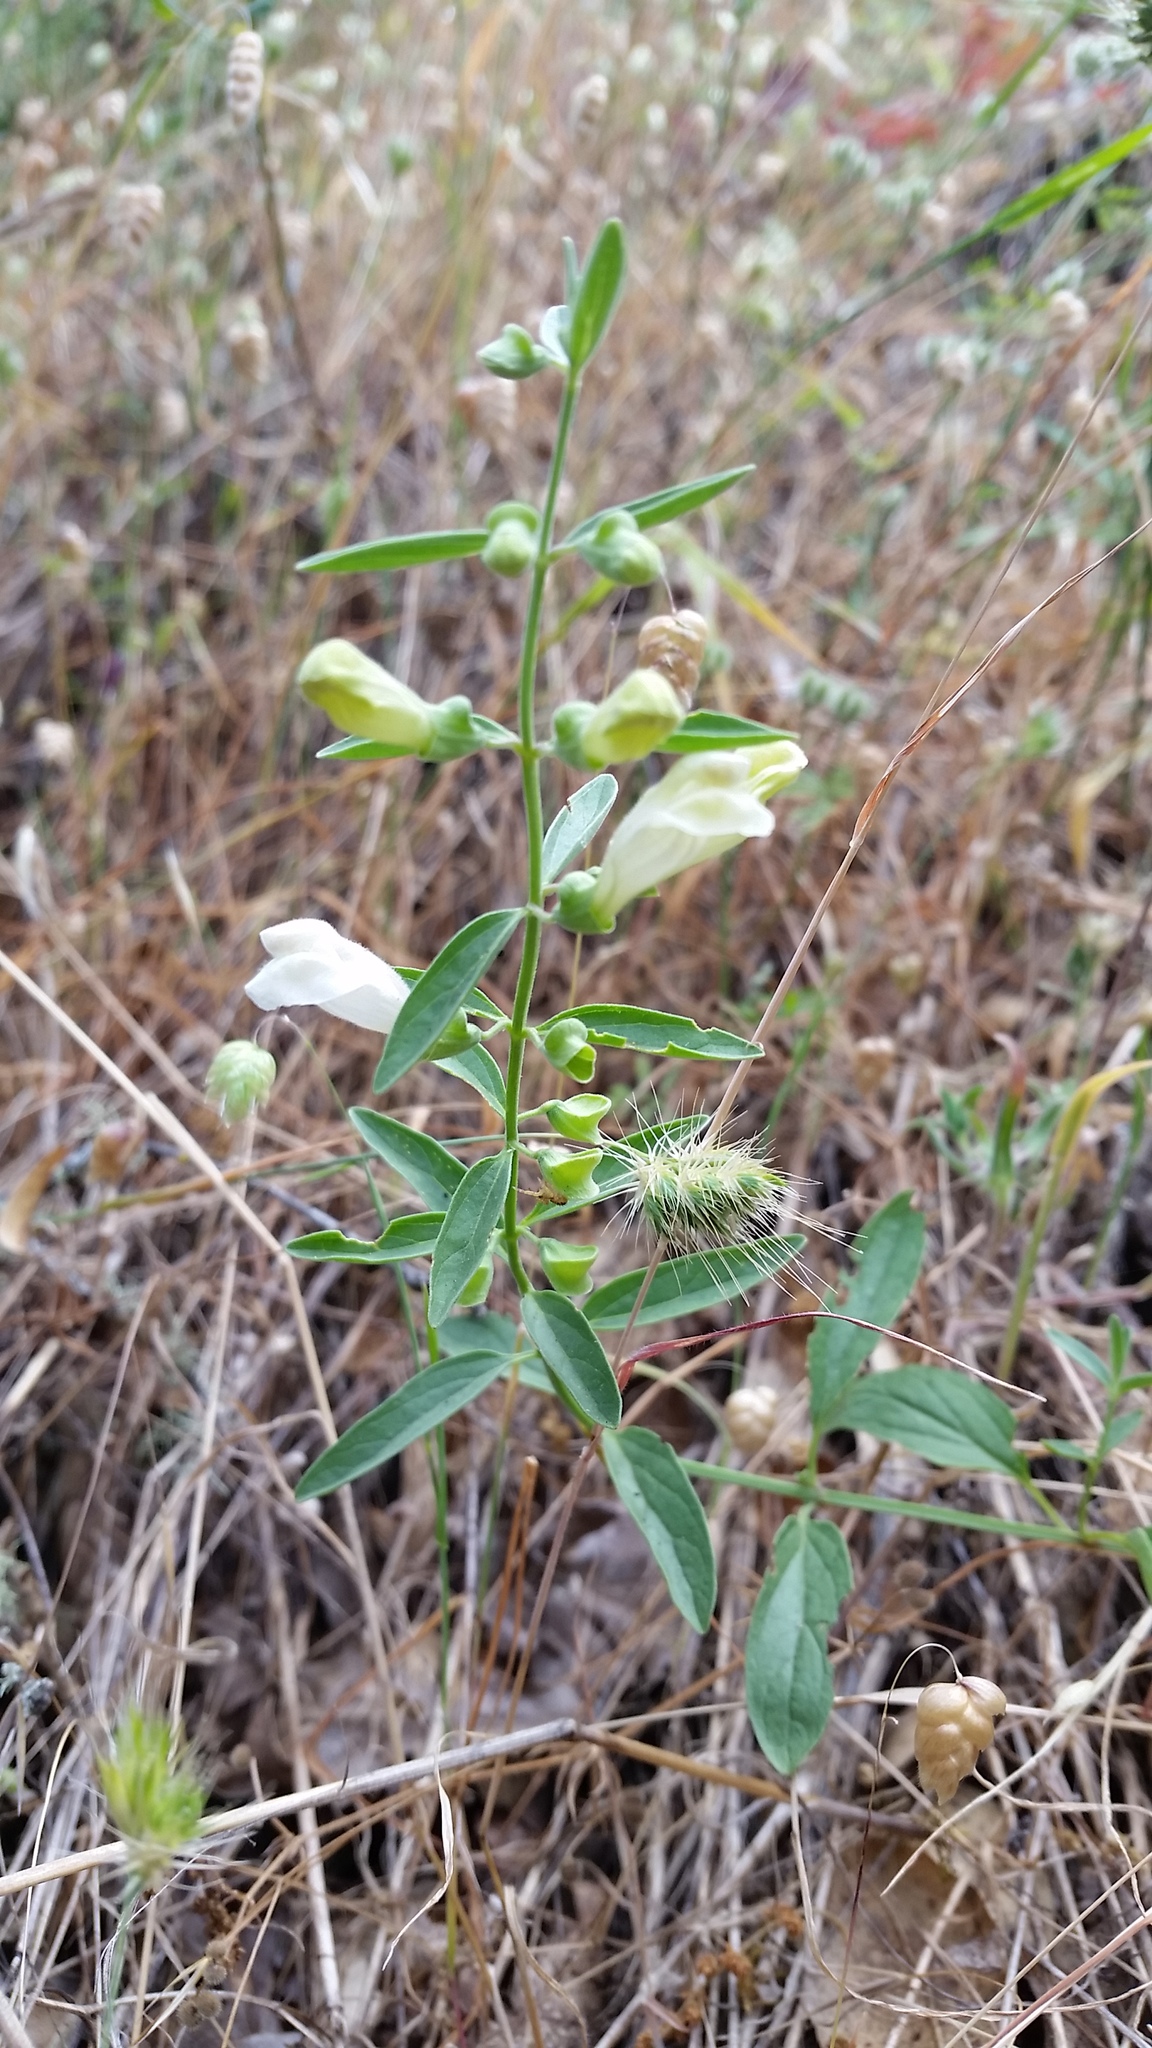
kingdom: Plantae
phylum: Tracheophyta
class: Magnoliopsida
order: Lamiales
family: Lamiaceae
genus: Scutellaria
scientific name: Scutellaria californica
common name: California scullcap
